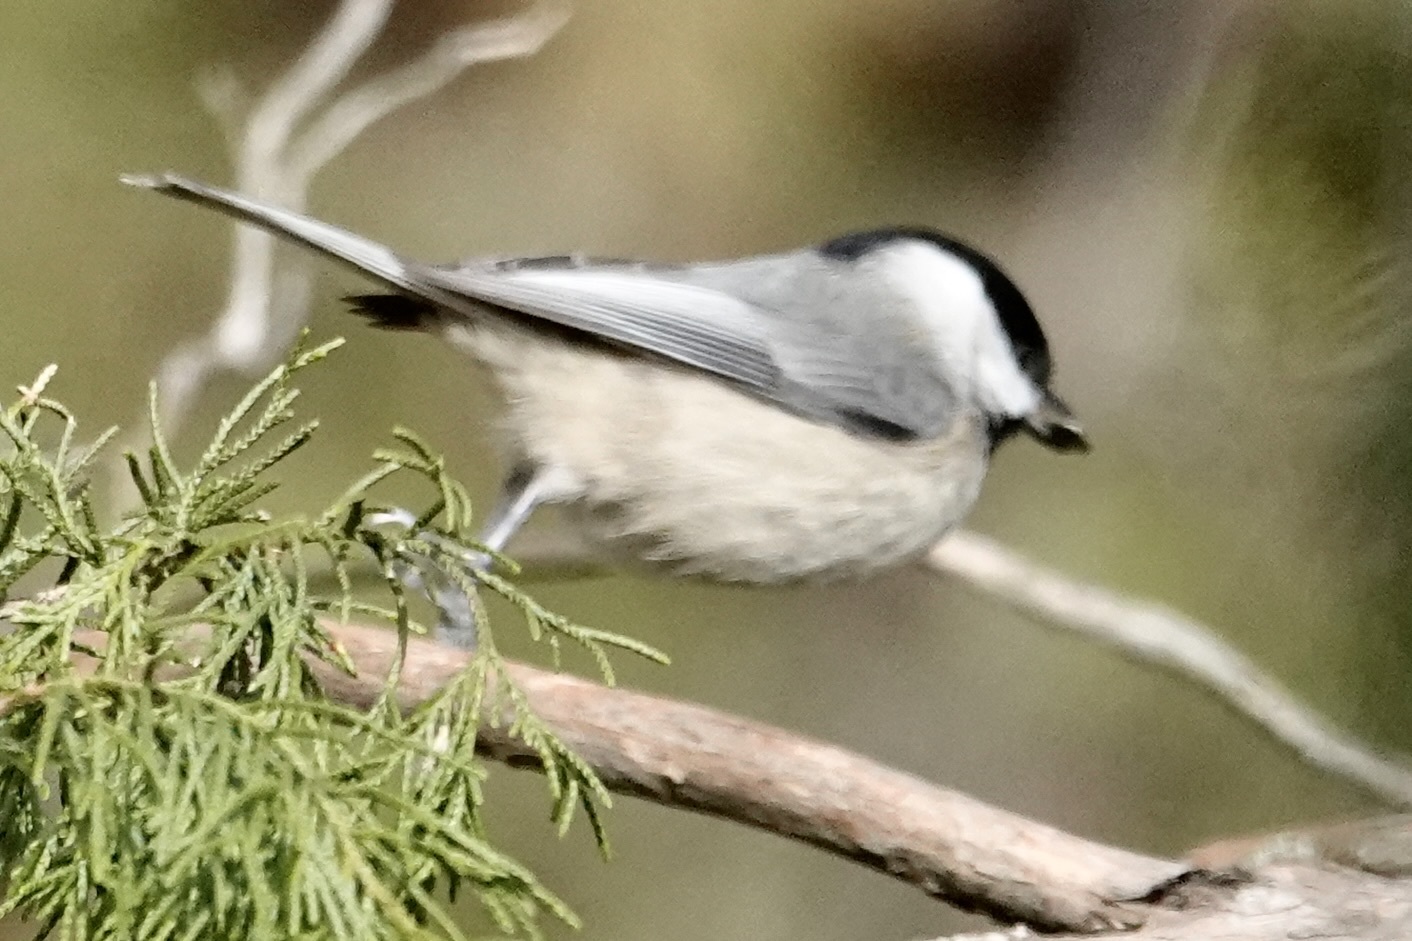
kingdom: Animalia
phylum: Chordata
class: Aves
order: Passeriformes
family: Paridae
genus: Poecile
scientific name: Poecile carolinensis
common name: Carolina chickadee
